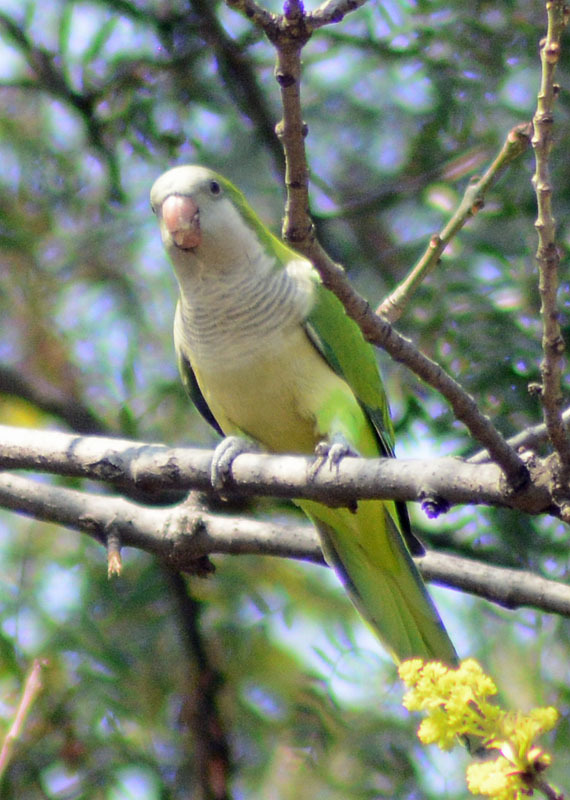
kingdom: Animalia
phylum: Chordata
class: Aves
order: Psittaciformes
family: Psittacidae
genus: Myiopsitta
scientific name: Myiopsitta monachus
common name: Monk parakeet
